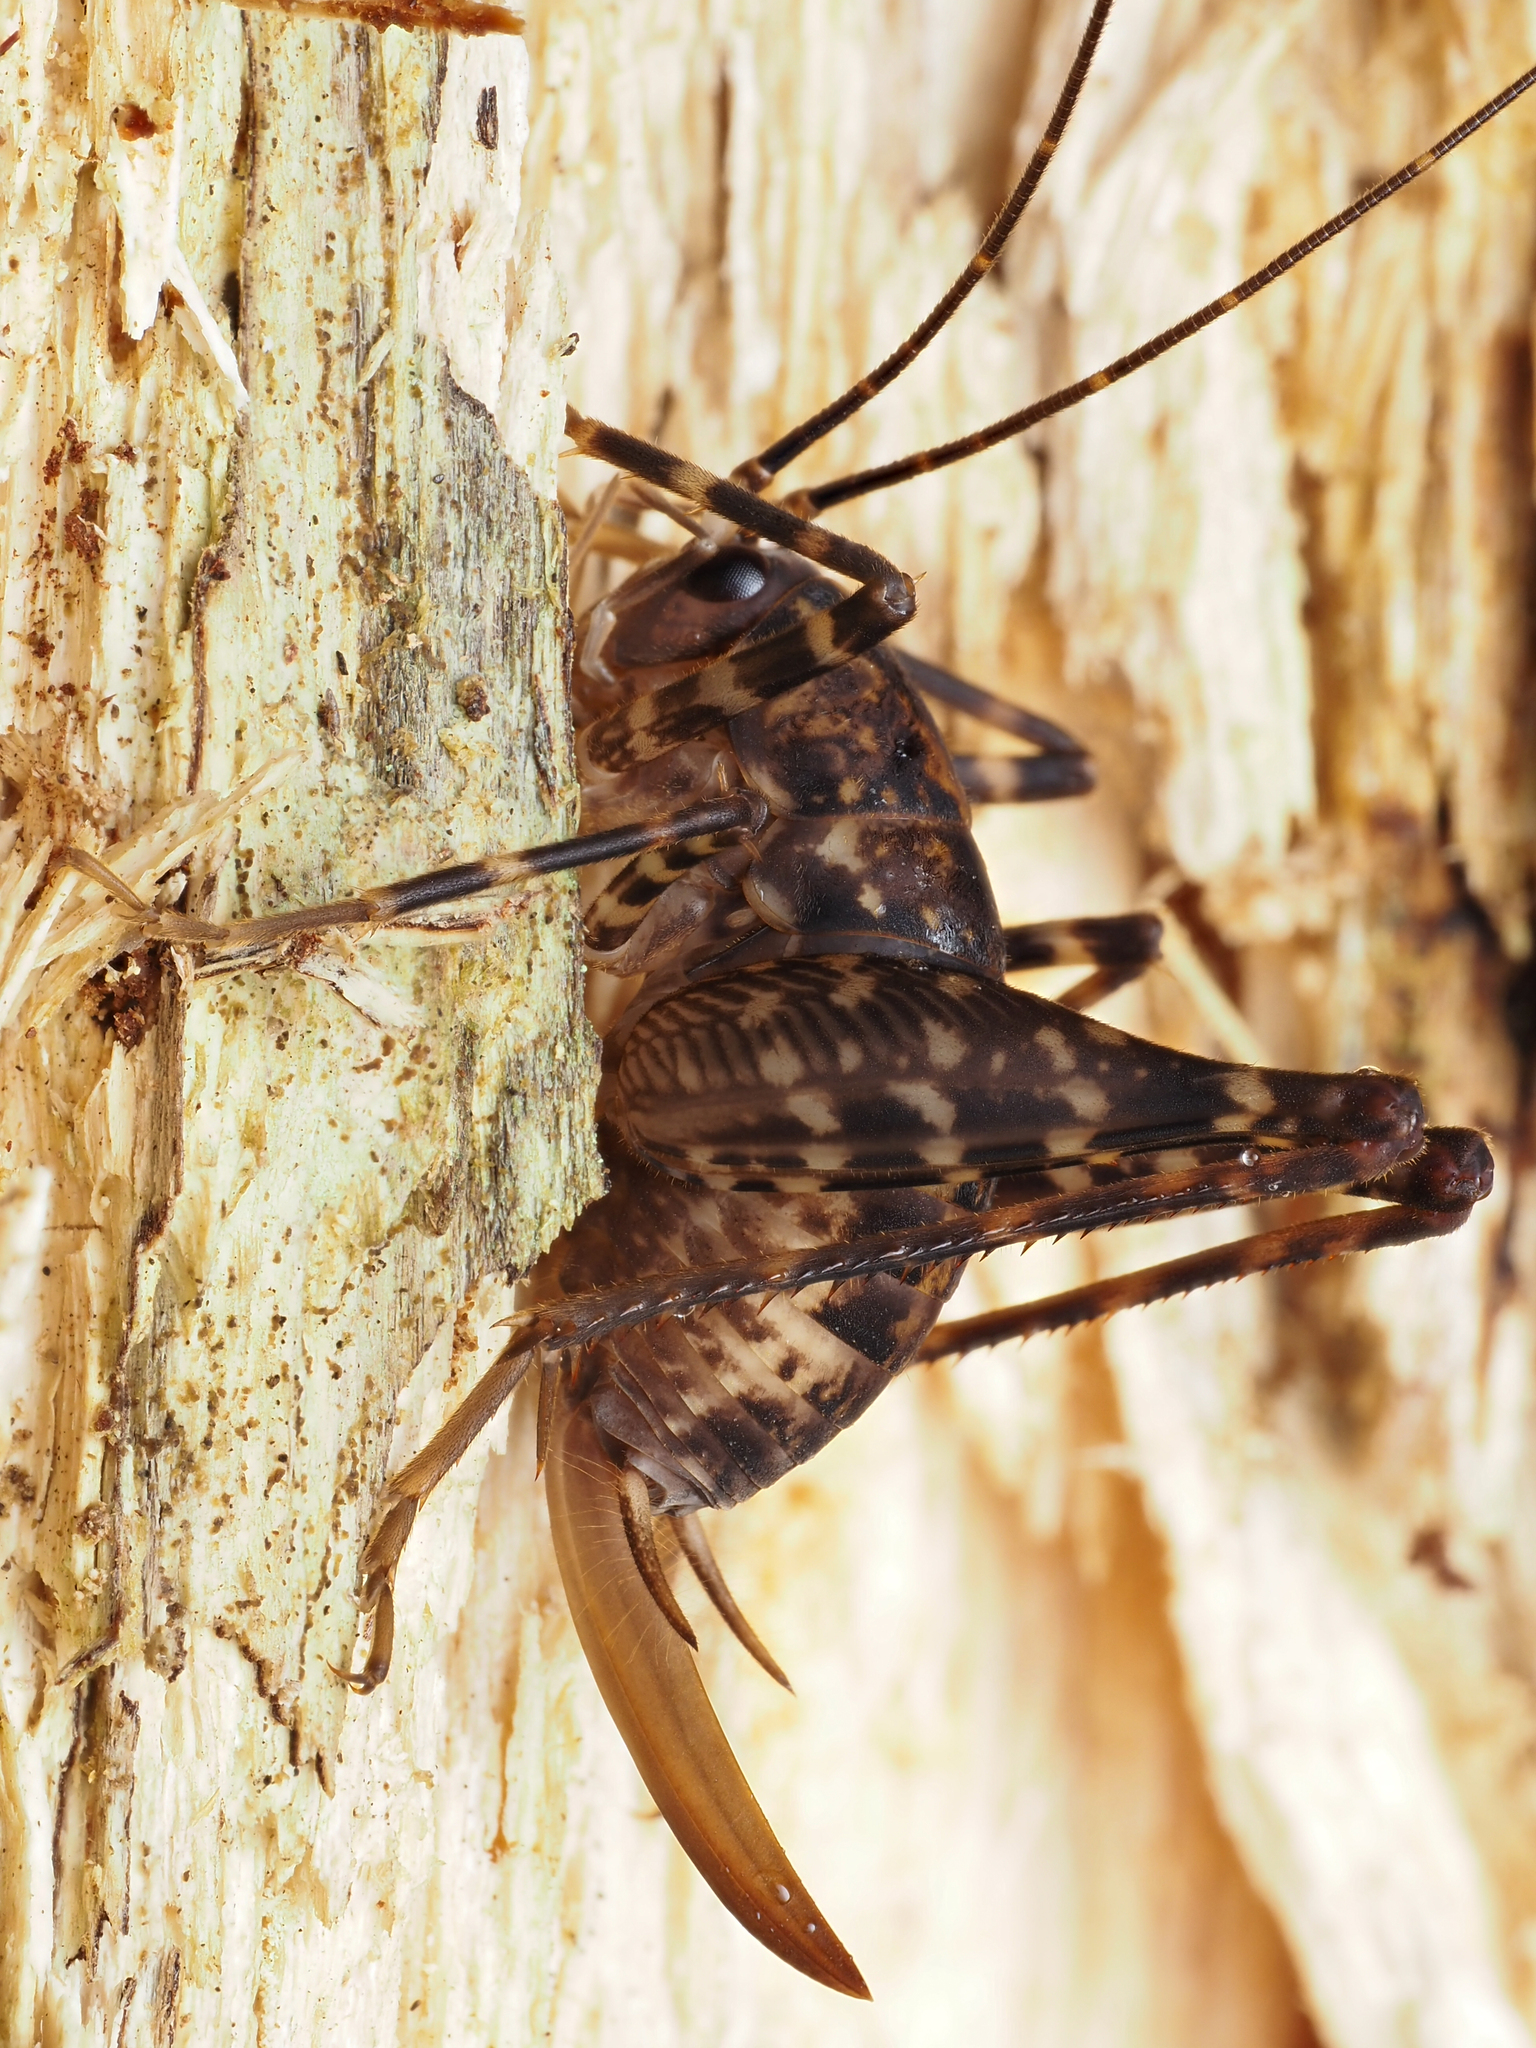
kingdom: Animalia
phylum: Arthropoda
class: Insecta
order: Orthoptera
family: Rhaphidophoridae
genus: Miotopus
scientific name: Miotopus diversus
